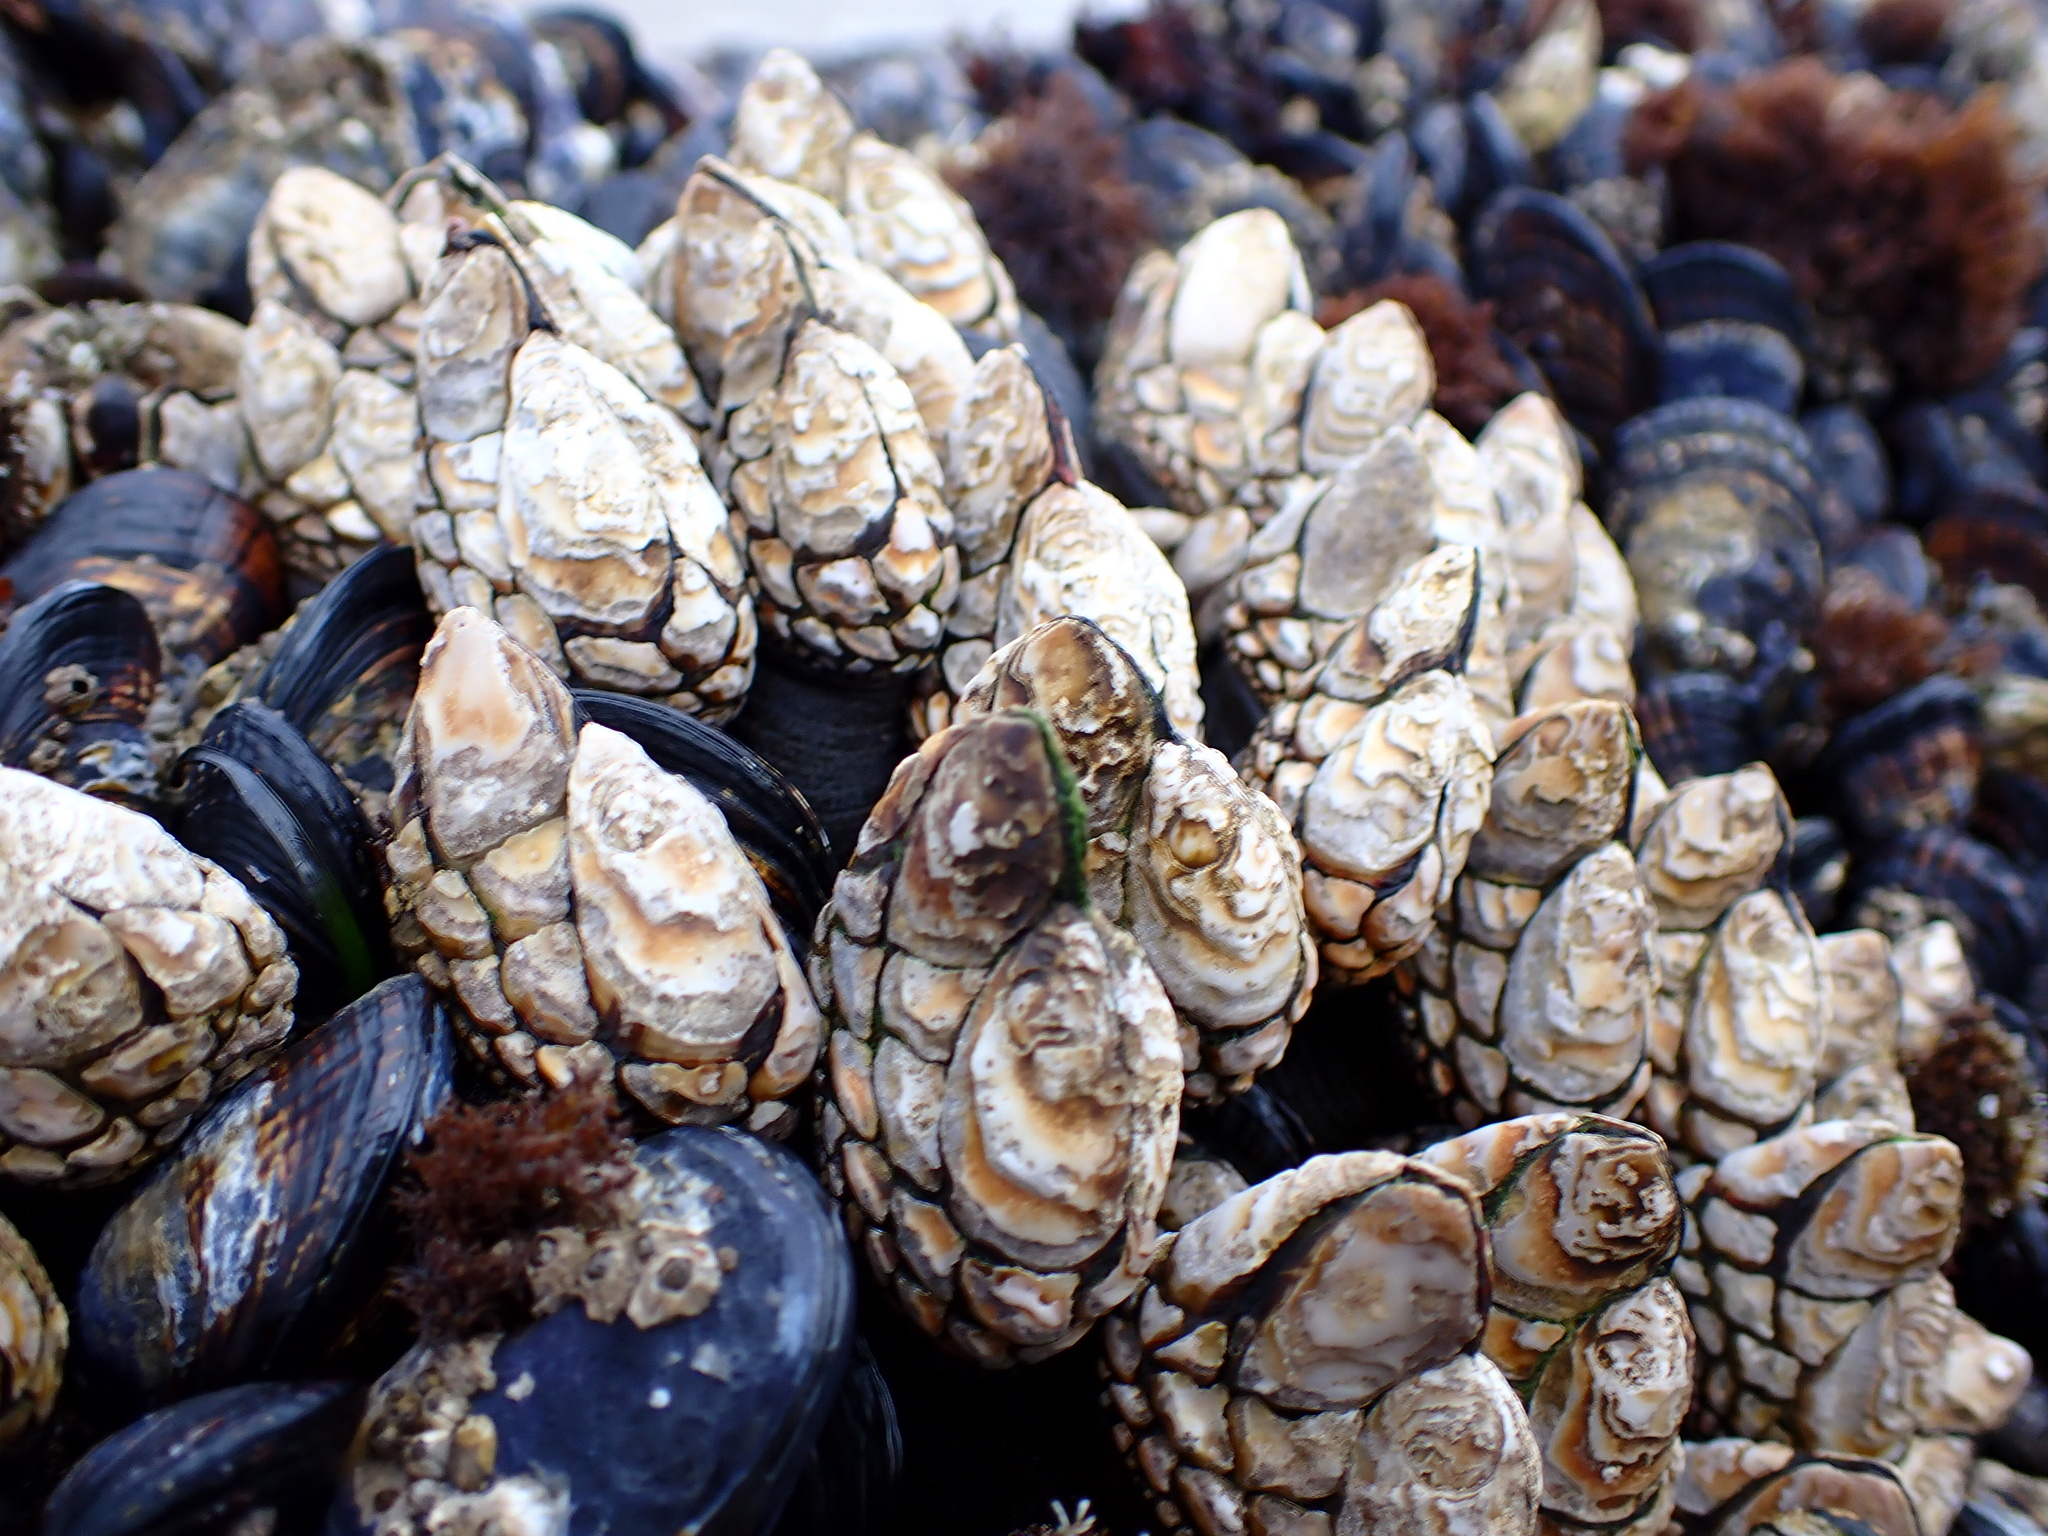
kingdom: Animalia
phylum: Arthropoda
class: Maxillopoda
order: Pedunculata
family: Pollicipedidae
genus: Pollicipes
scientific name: Pollicipes polymerus
